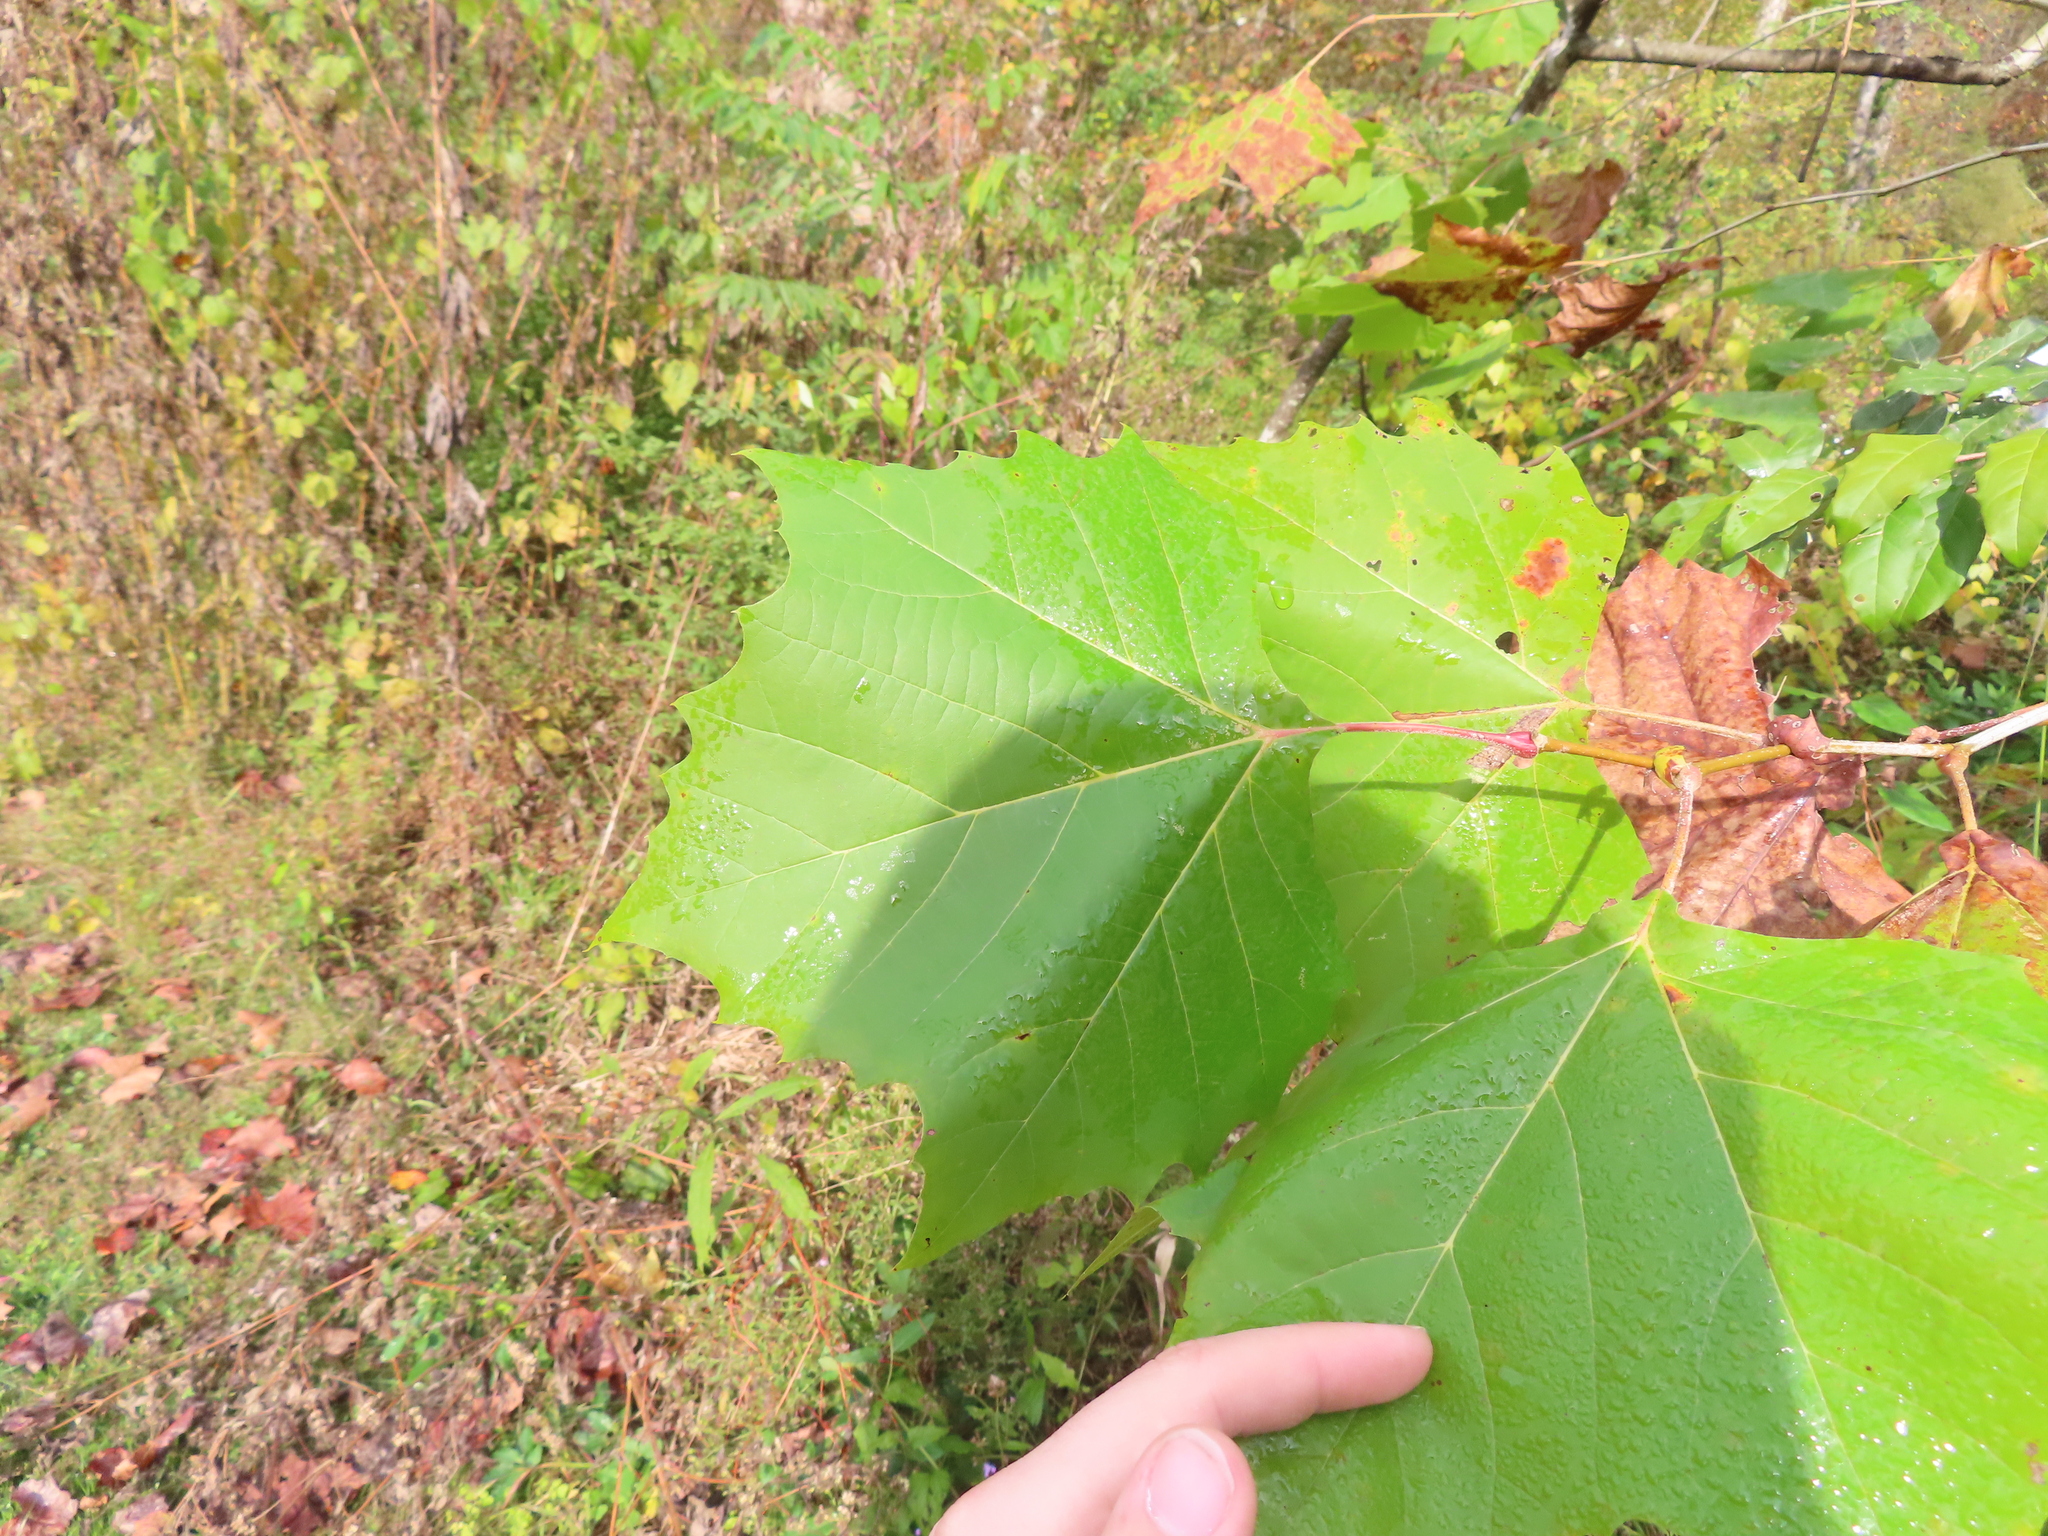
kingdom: Plantae
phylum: Tracheophyta
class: Magnoliopsida
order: Proteales
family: Platanaceae
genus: Platanus
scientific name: Platanus occidentalis
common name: American sycamore
